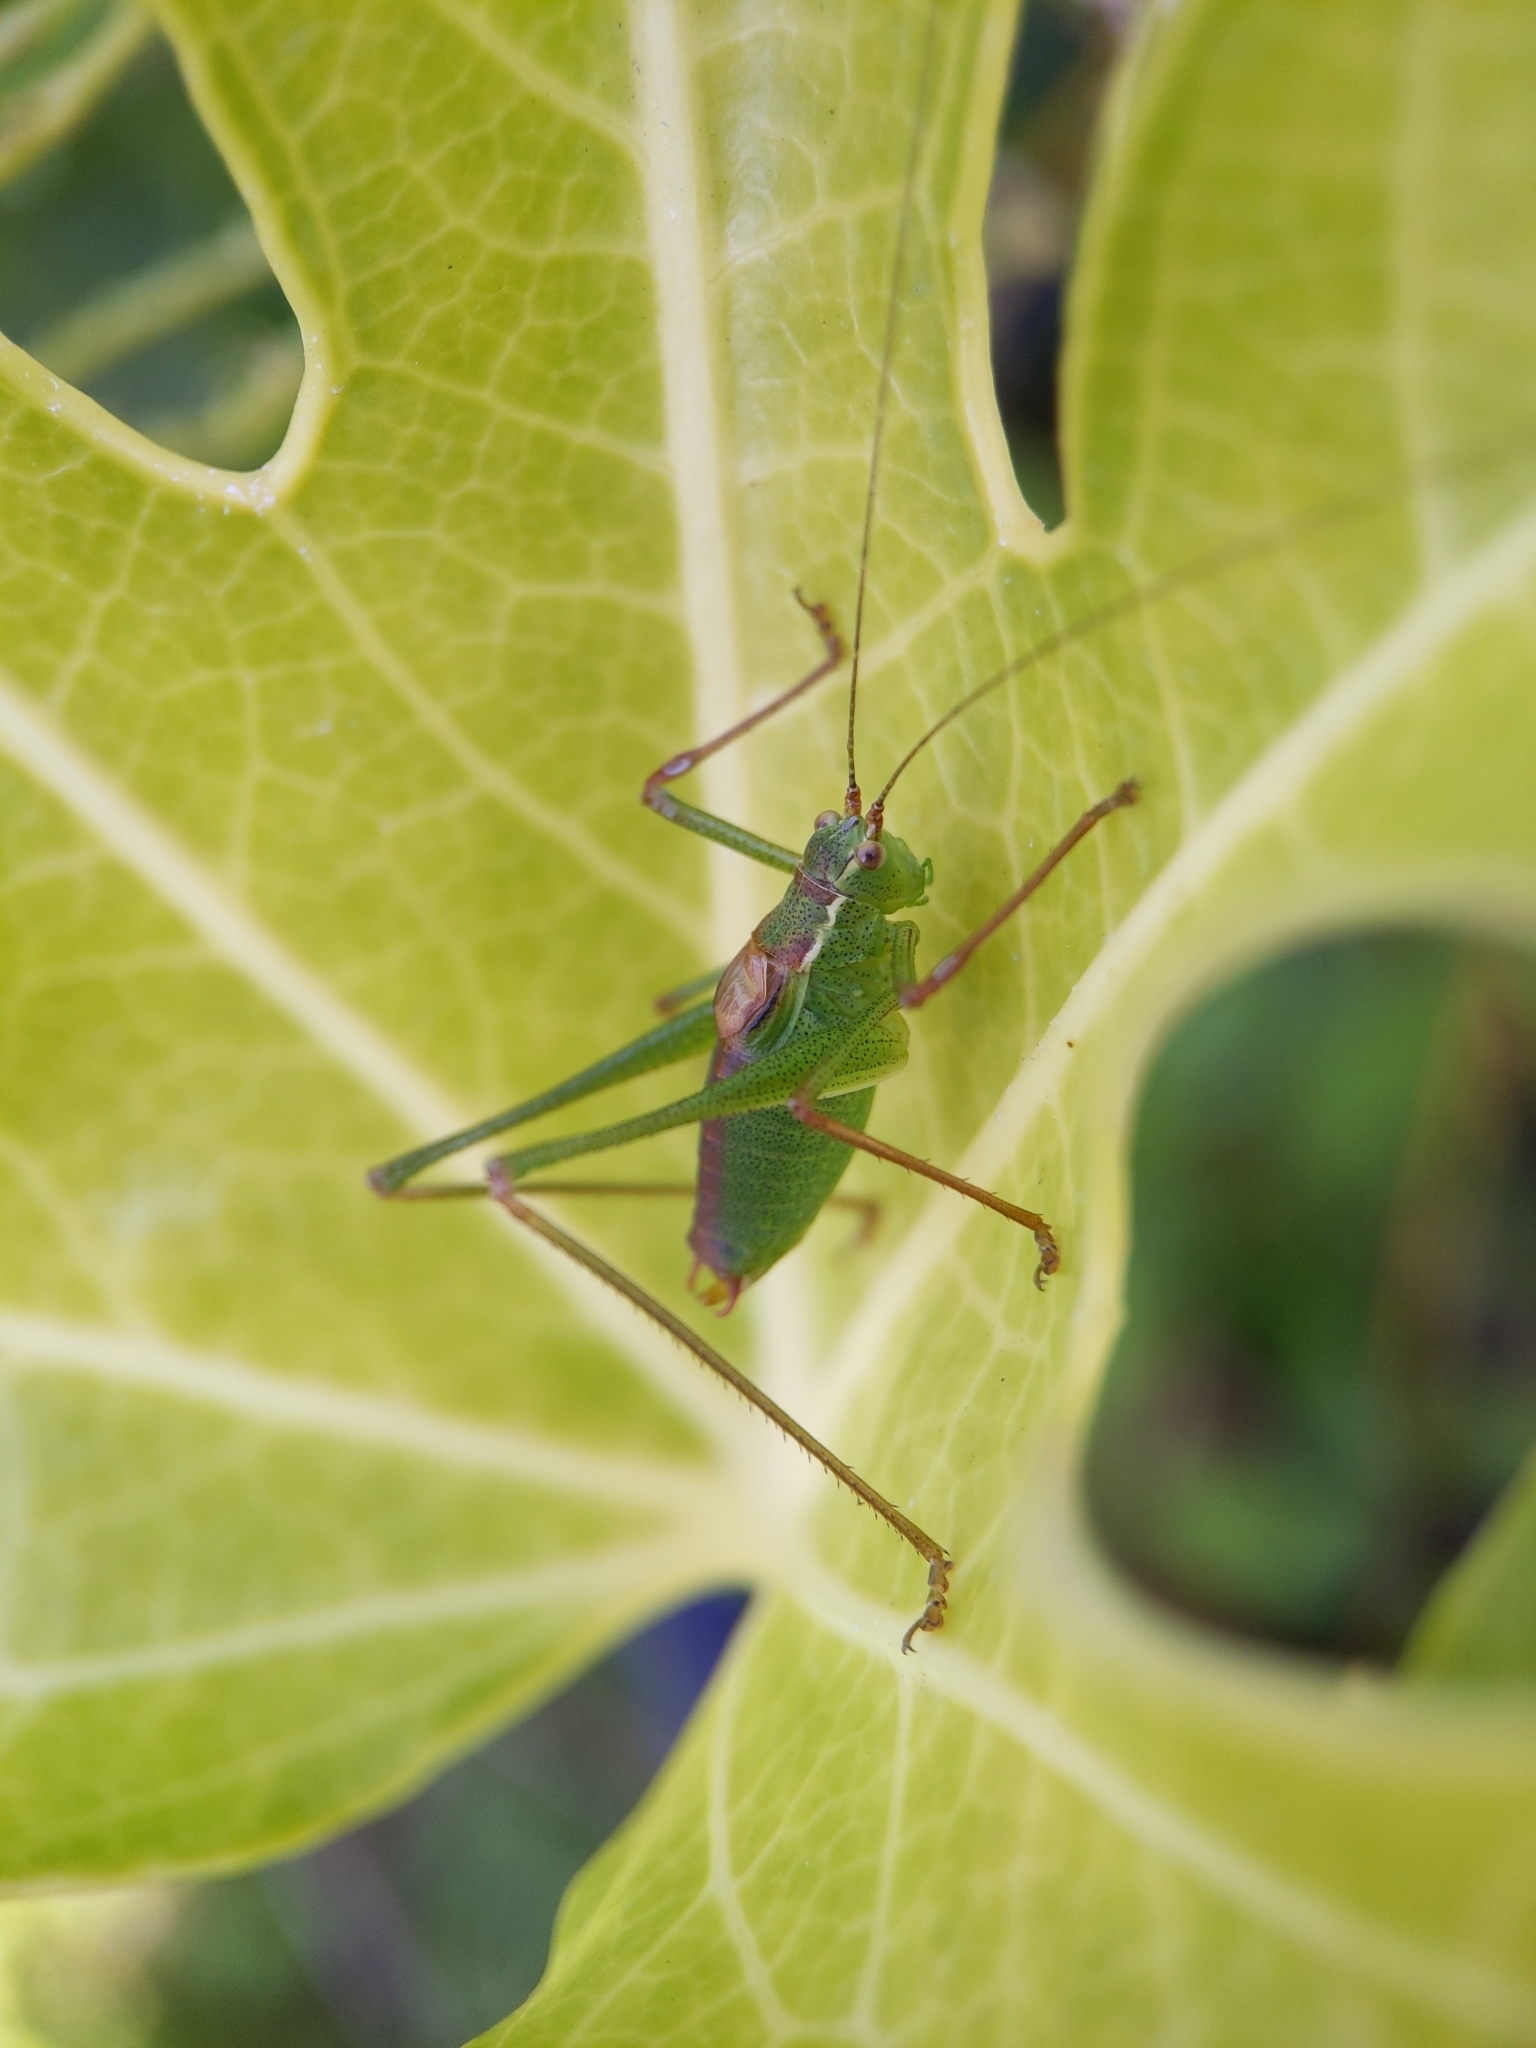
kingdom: Animalia
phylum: Arthropoda
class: Insecta
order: Orthoptera
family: Tettigoniidae
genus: Leptophyes
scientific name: Leptophyes punctatissima
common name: Speckled bush-cricket
